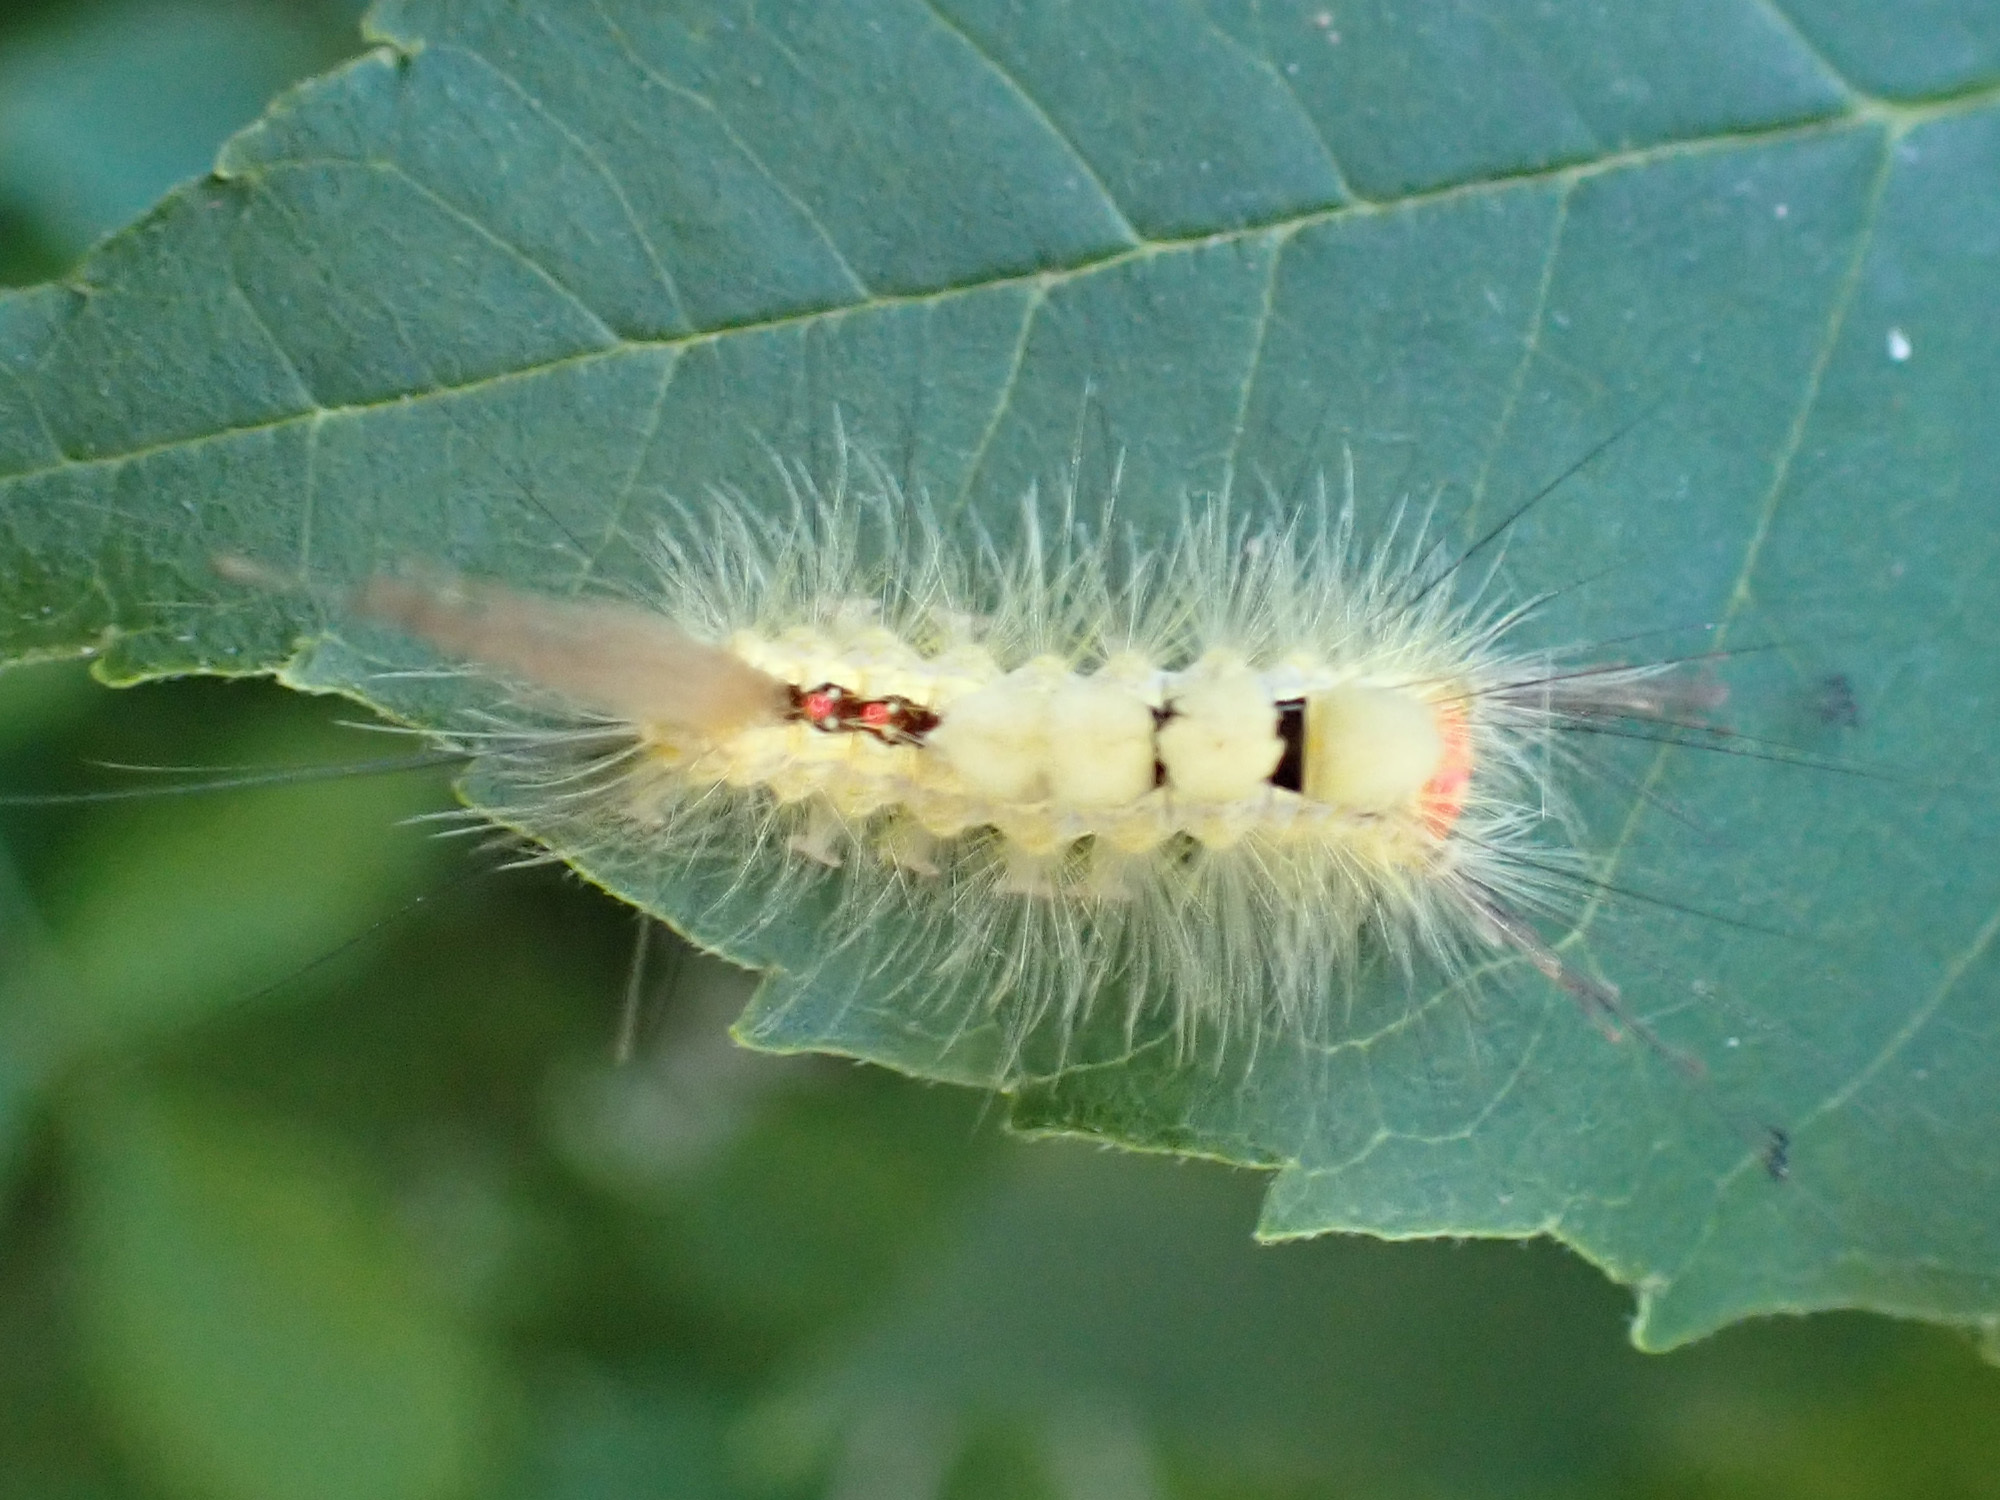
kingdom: Animalia
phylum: Arthropoda
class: Insecta
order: Lepidoptera
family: Erebidae
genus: Orgyia
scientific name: Orgyia leucostigma
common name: White-marked tussock moth
